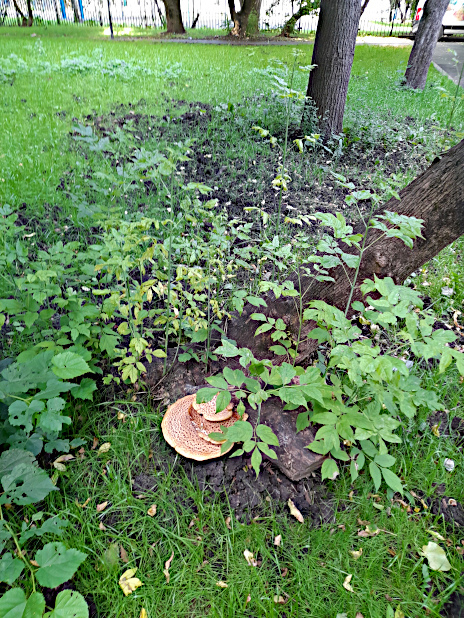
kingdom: Fungi
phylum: Basidiomycota
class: Agaricomycetes
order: Polyporales
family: Polyporaceae
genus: Cerioporus
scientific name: Cerioporus squamosus
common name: Dryad's saddle
